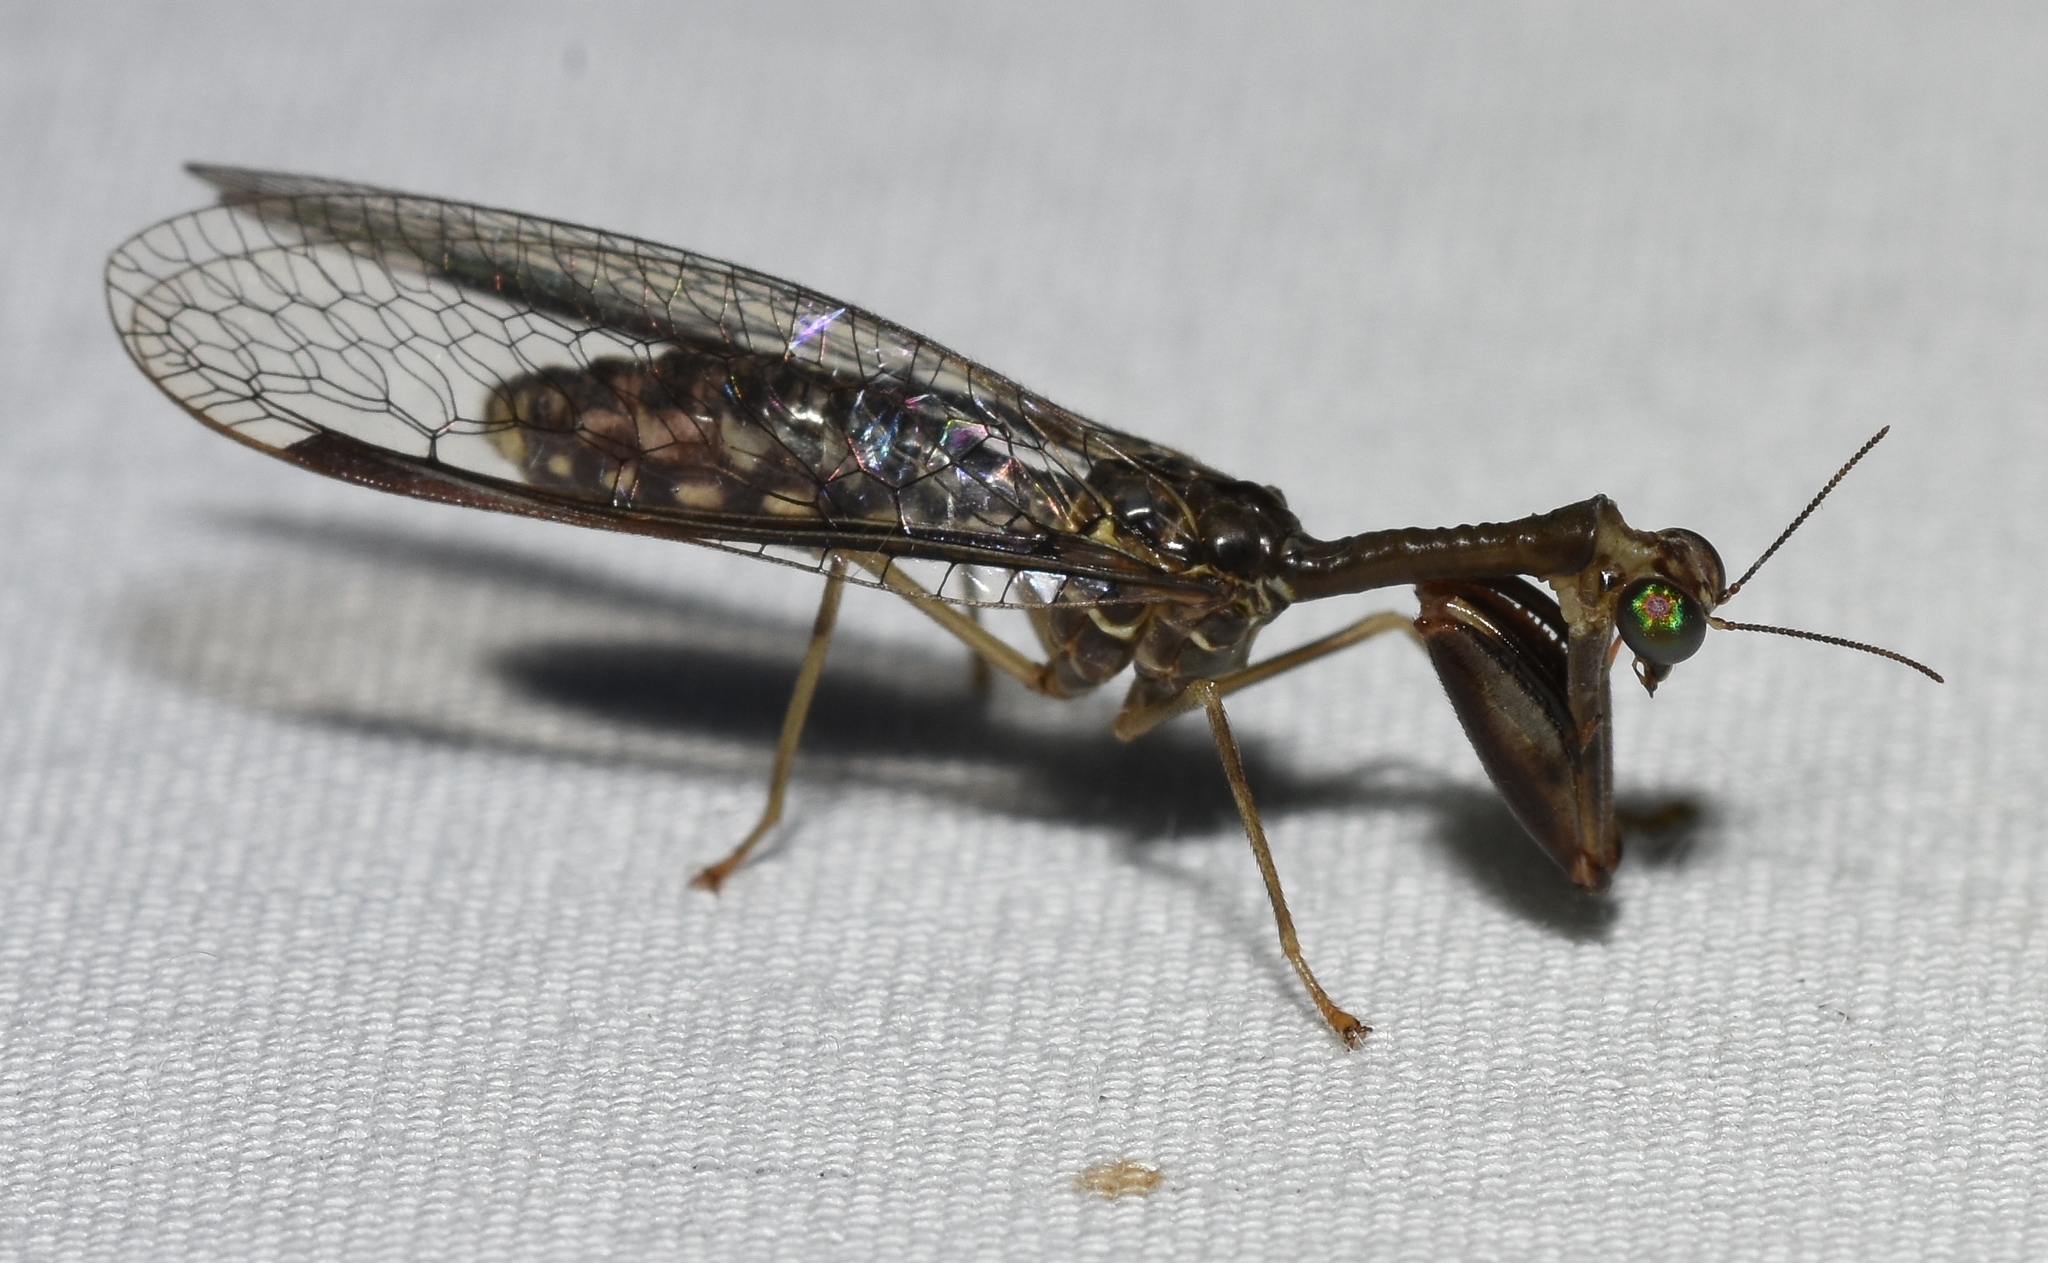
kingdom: Animalia
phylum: Arthropoda
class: Insecta
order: Neuroptera
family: Mantispidae
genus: Dicromantispa
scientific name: Dicromantispa sayi
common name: Say's mantidfly
